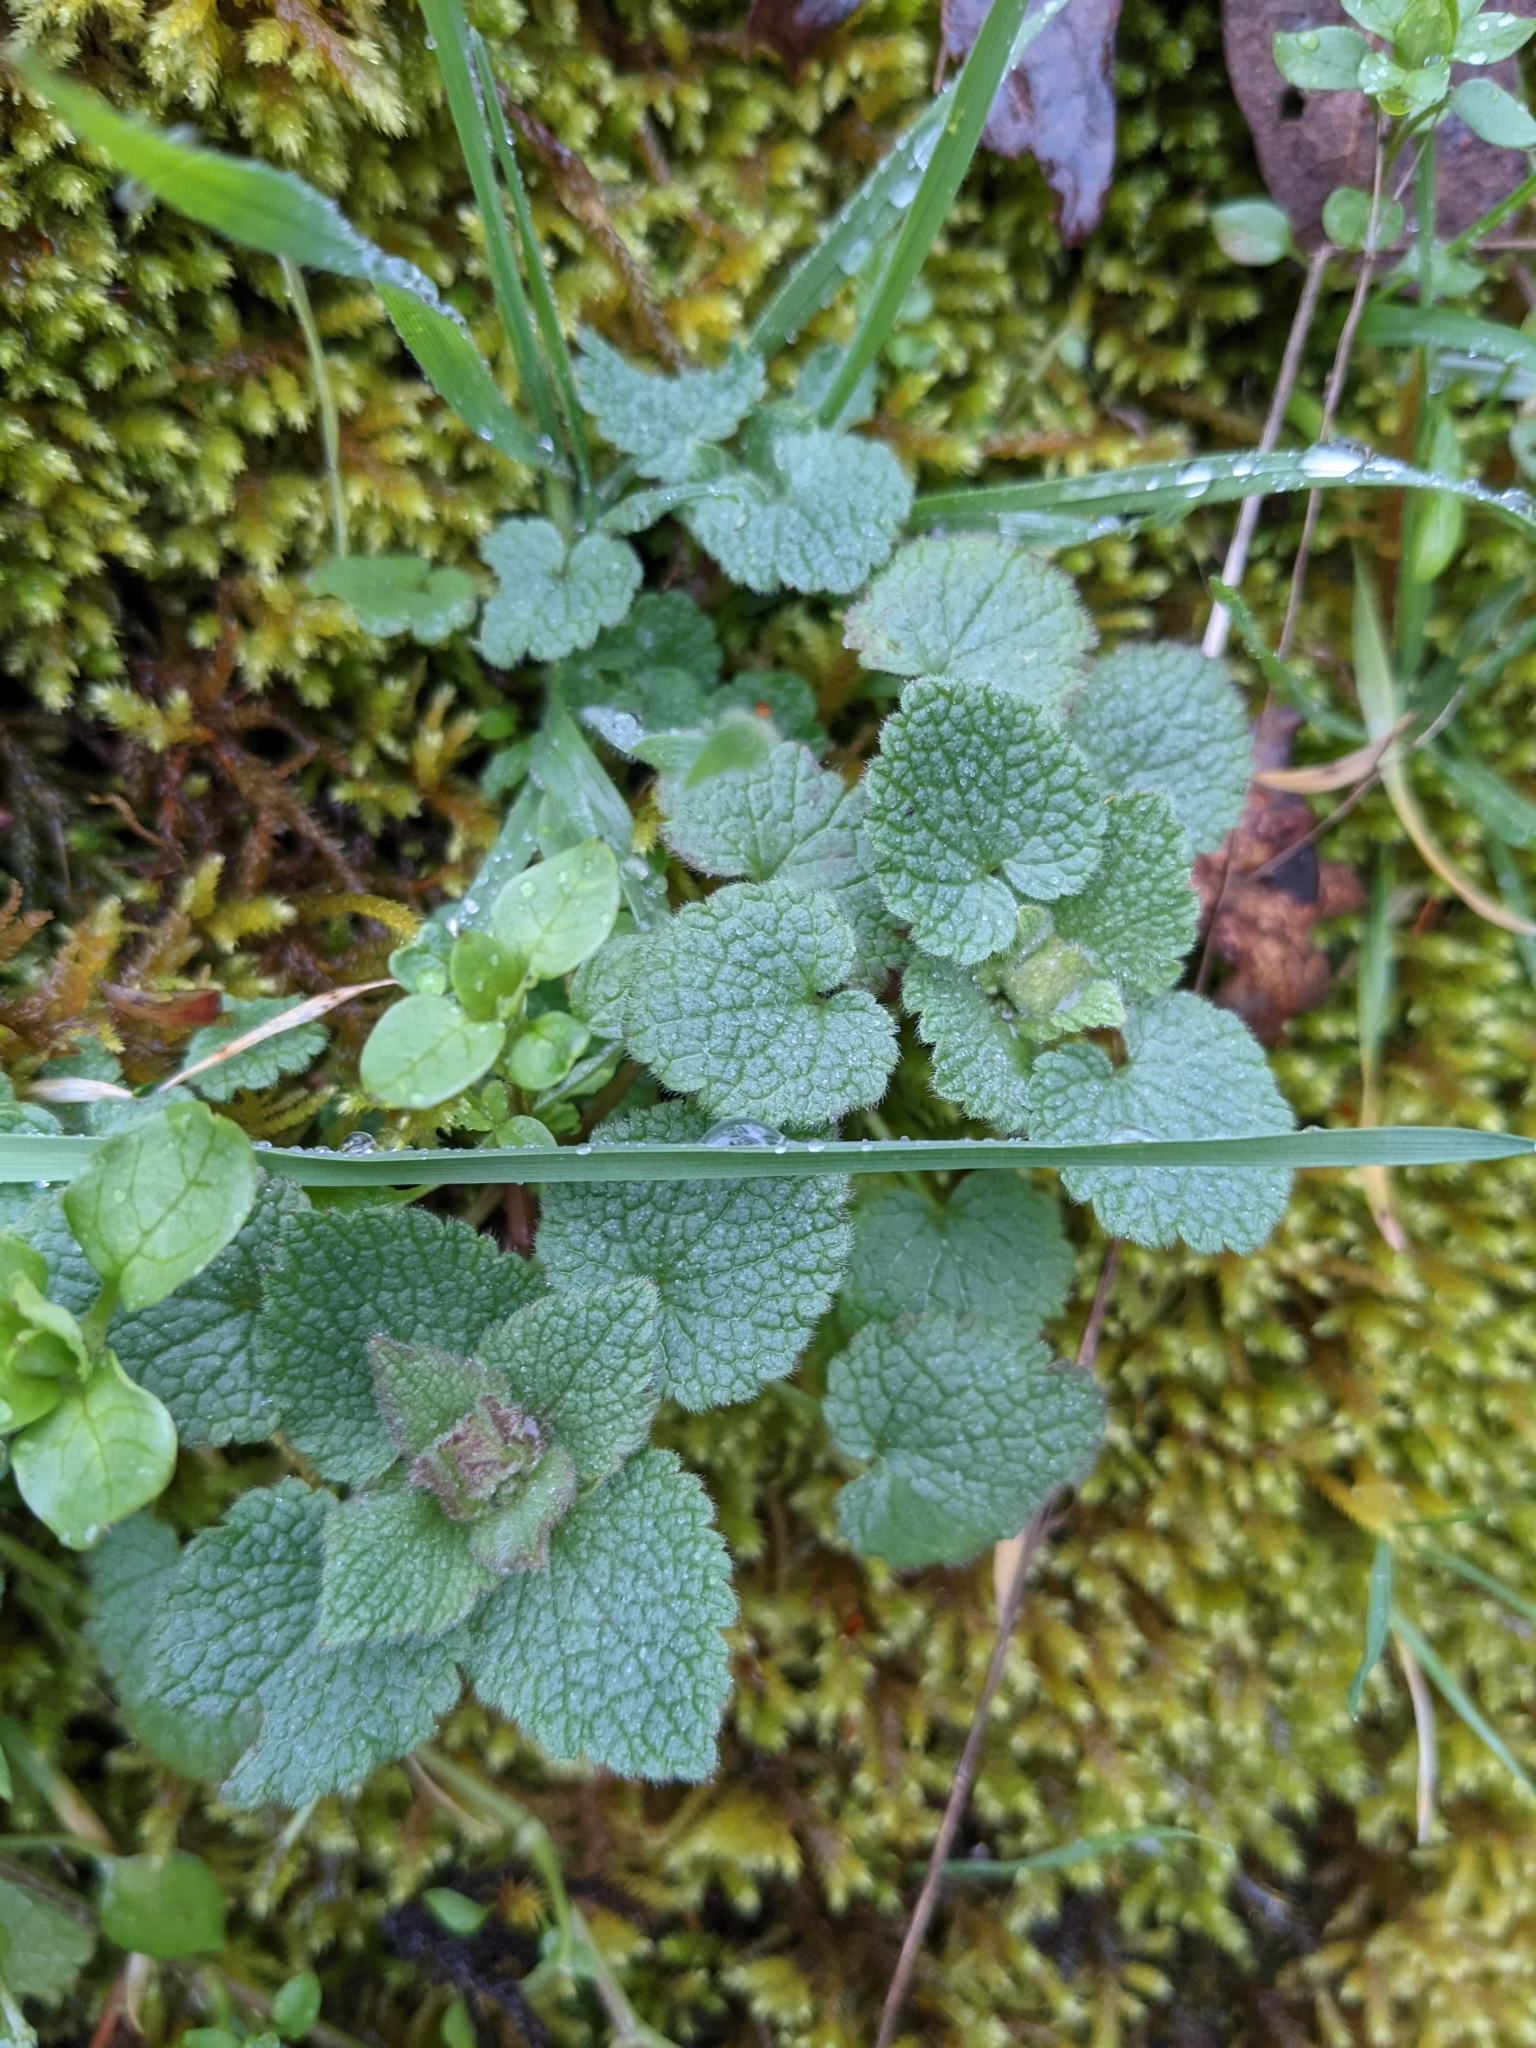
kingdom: Plantae
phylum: Tracheophyta
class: Magnoliopsida
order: Lamiales
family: Lamiaceae
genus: Lamium
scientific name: Lamium purpureum
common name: Red dead-nettle
